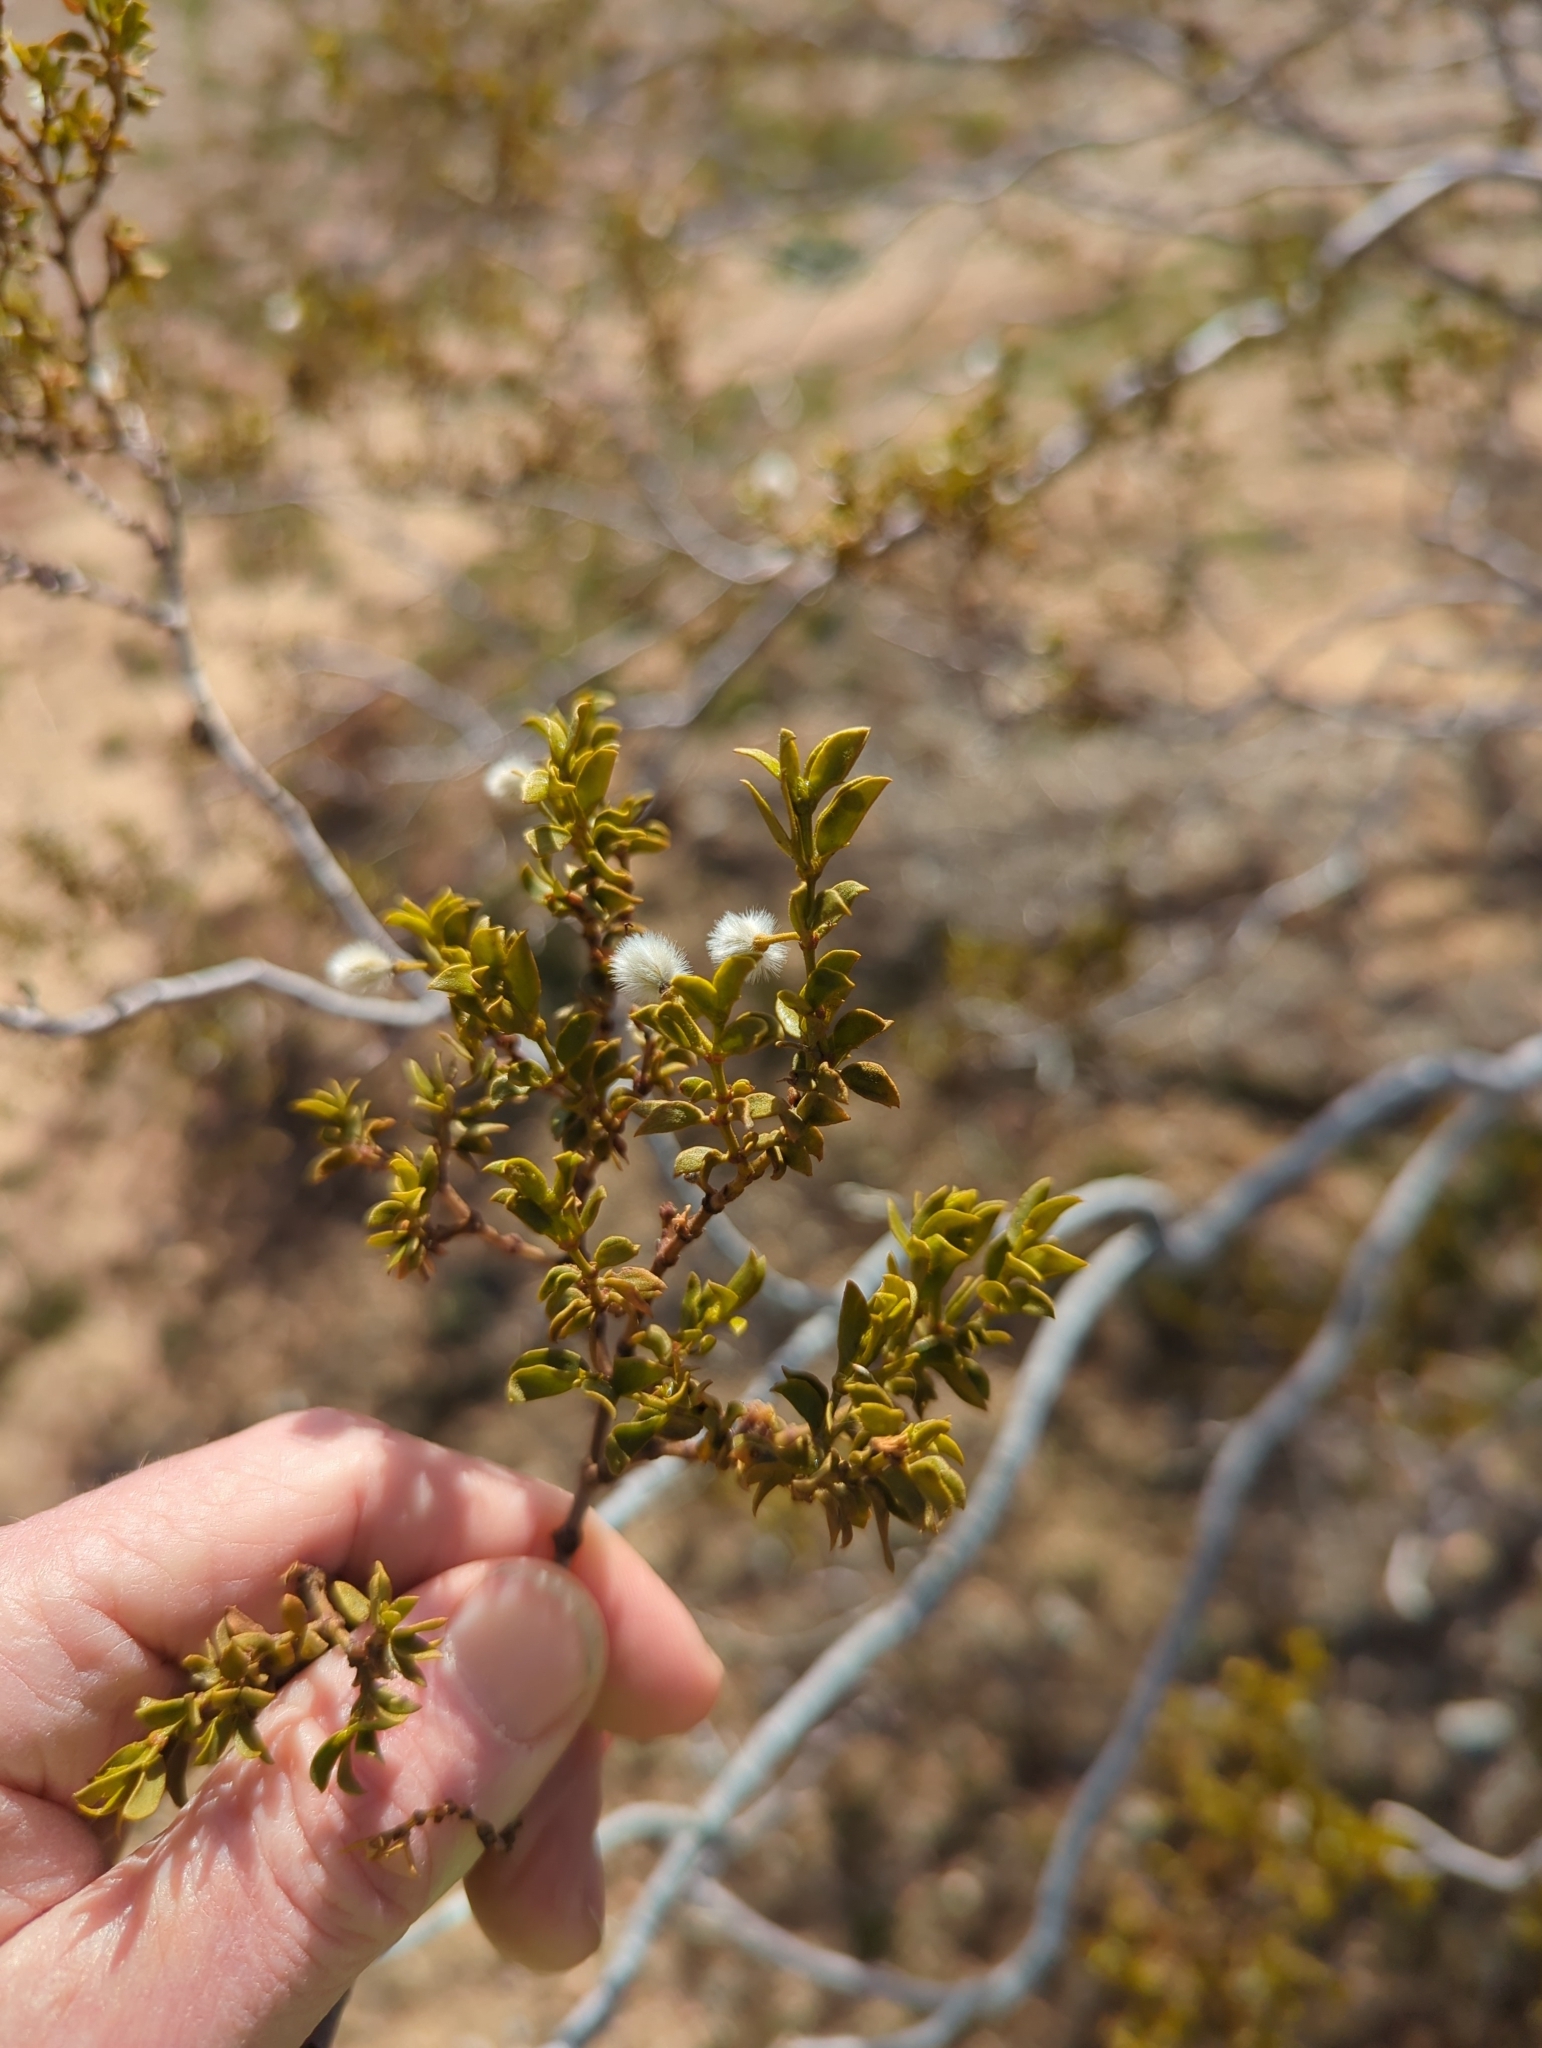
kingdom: Plantae
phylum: Tracheophyta
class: Magnoliopsida
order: Zygophyllales
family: Zygophyllaceae
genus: Larrea
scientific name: Larrea tridentata
